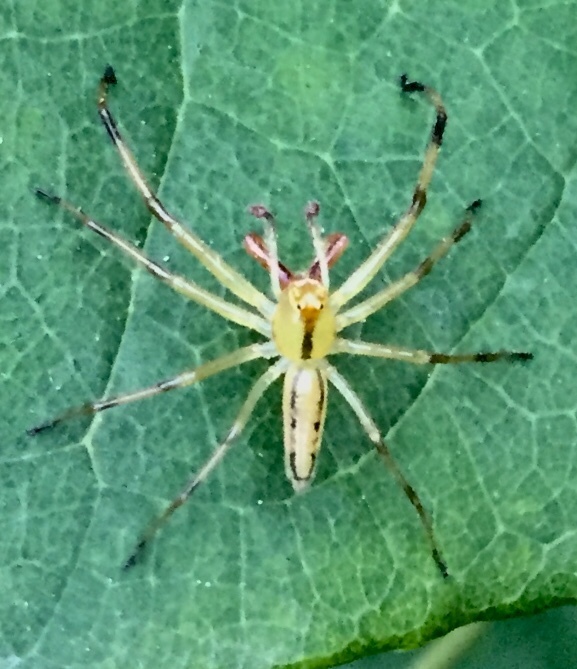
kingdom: Animalia
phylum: Arthropoda
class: Arachnida
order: Araneae
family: Salticidae
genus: Lyssomanes
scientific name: Lyssomanes viridis
